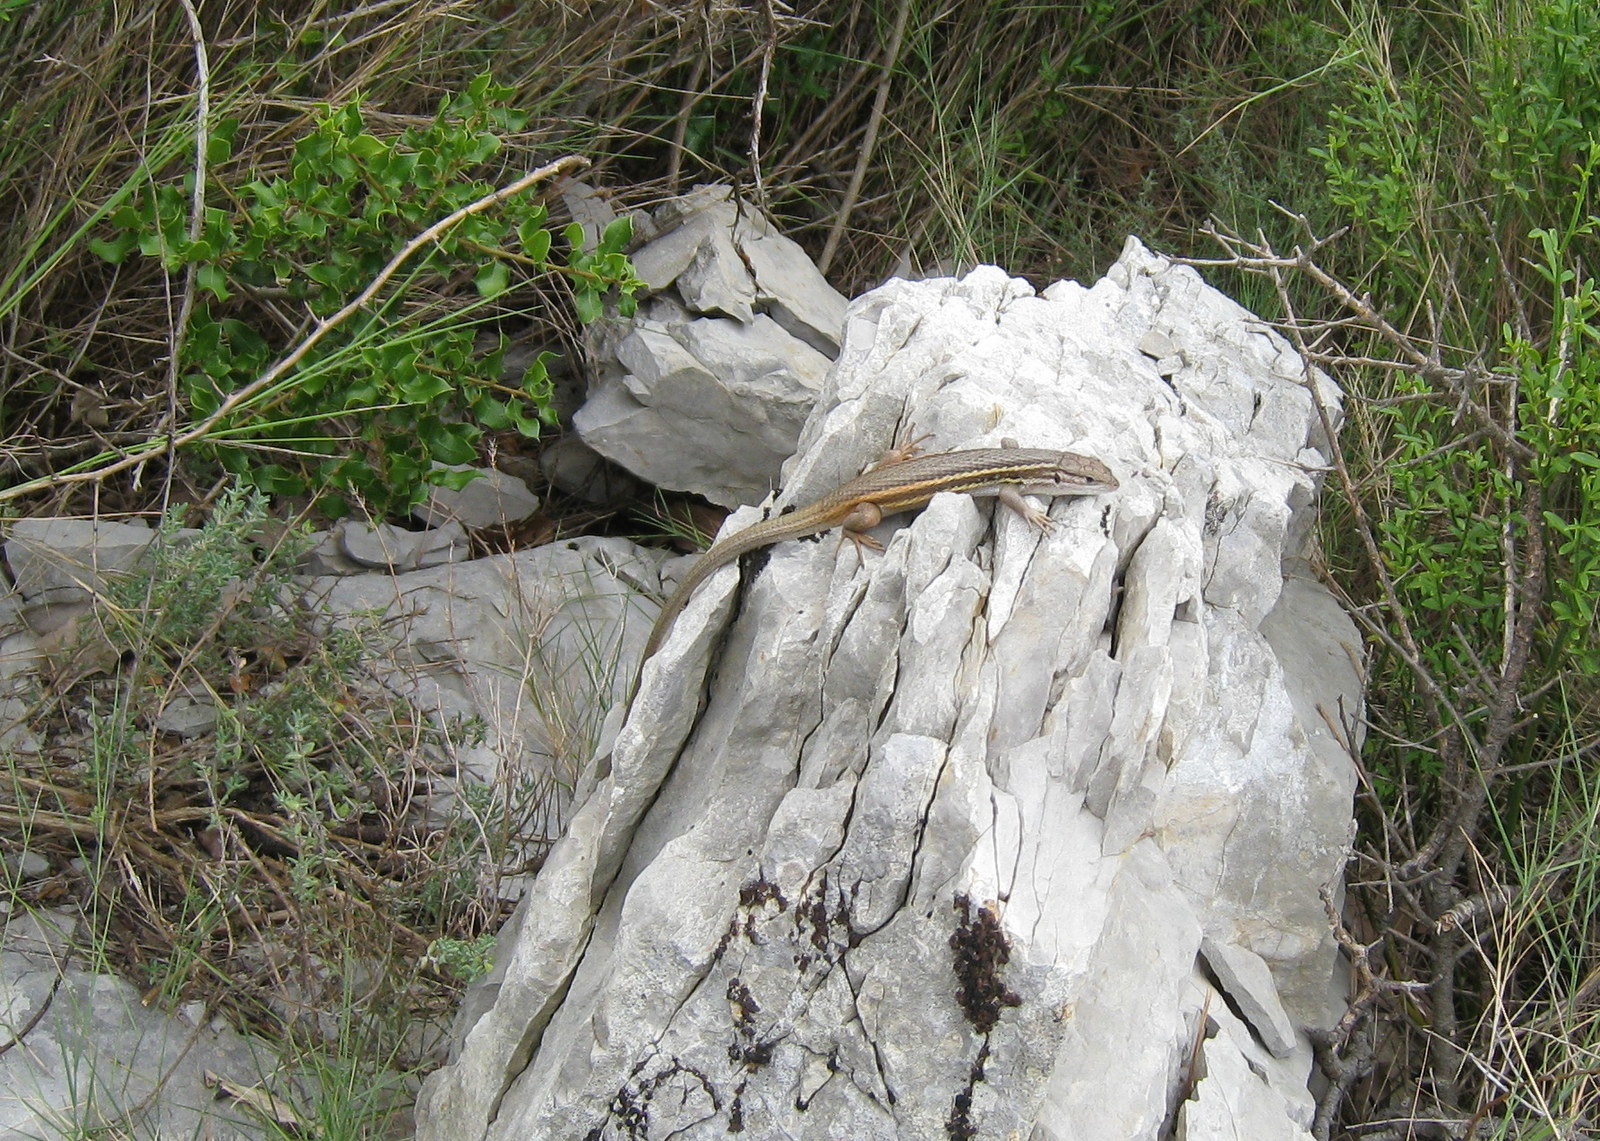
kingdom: Animalia
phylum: Chordata
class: Squamata
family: Lacertidae
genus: Psammodromus
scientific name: Psammodromus algirus
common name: Algerian psammodromus
